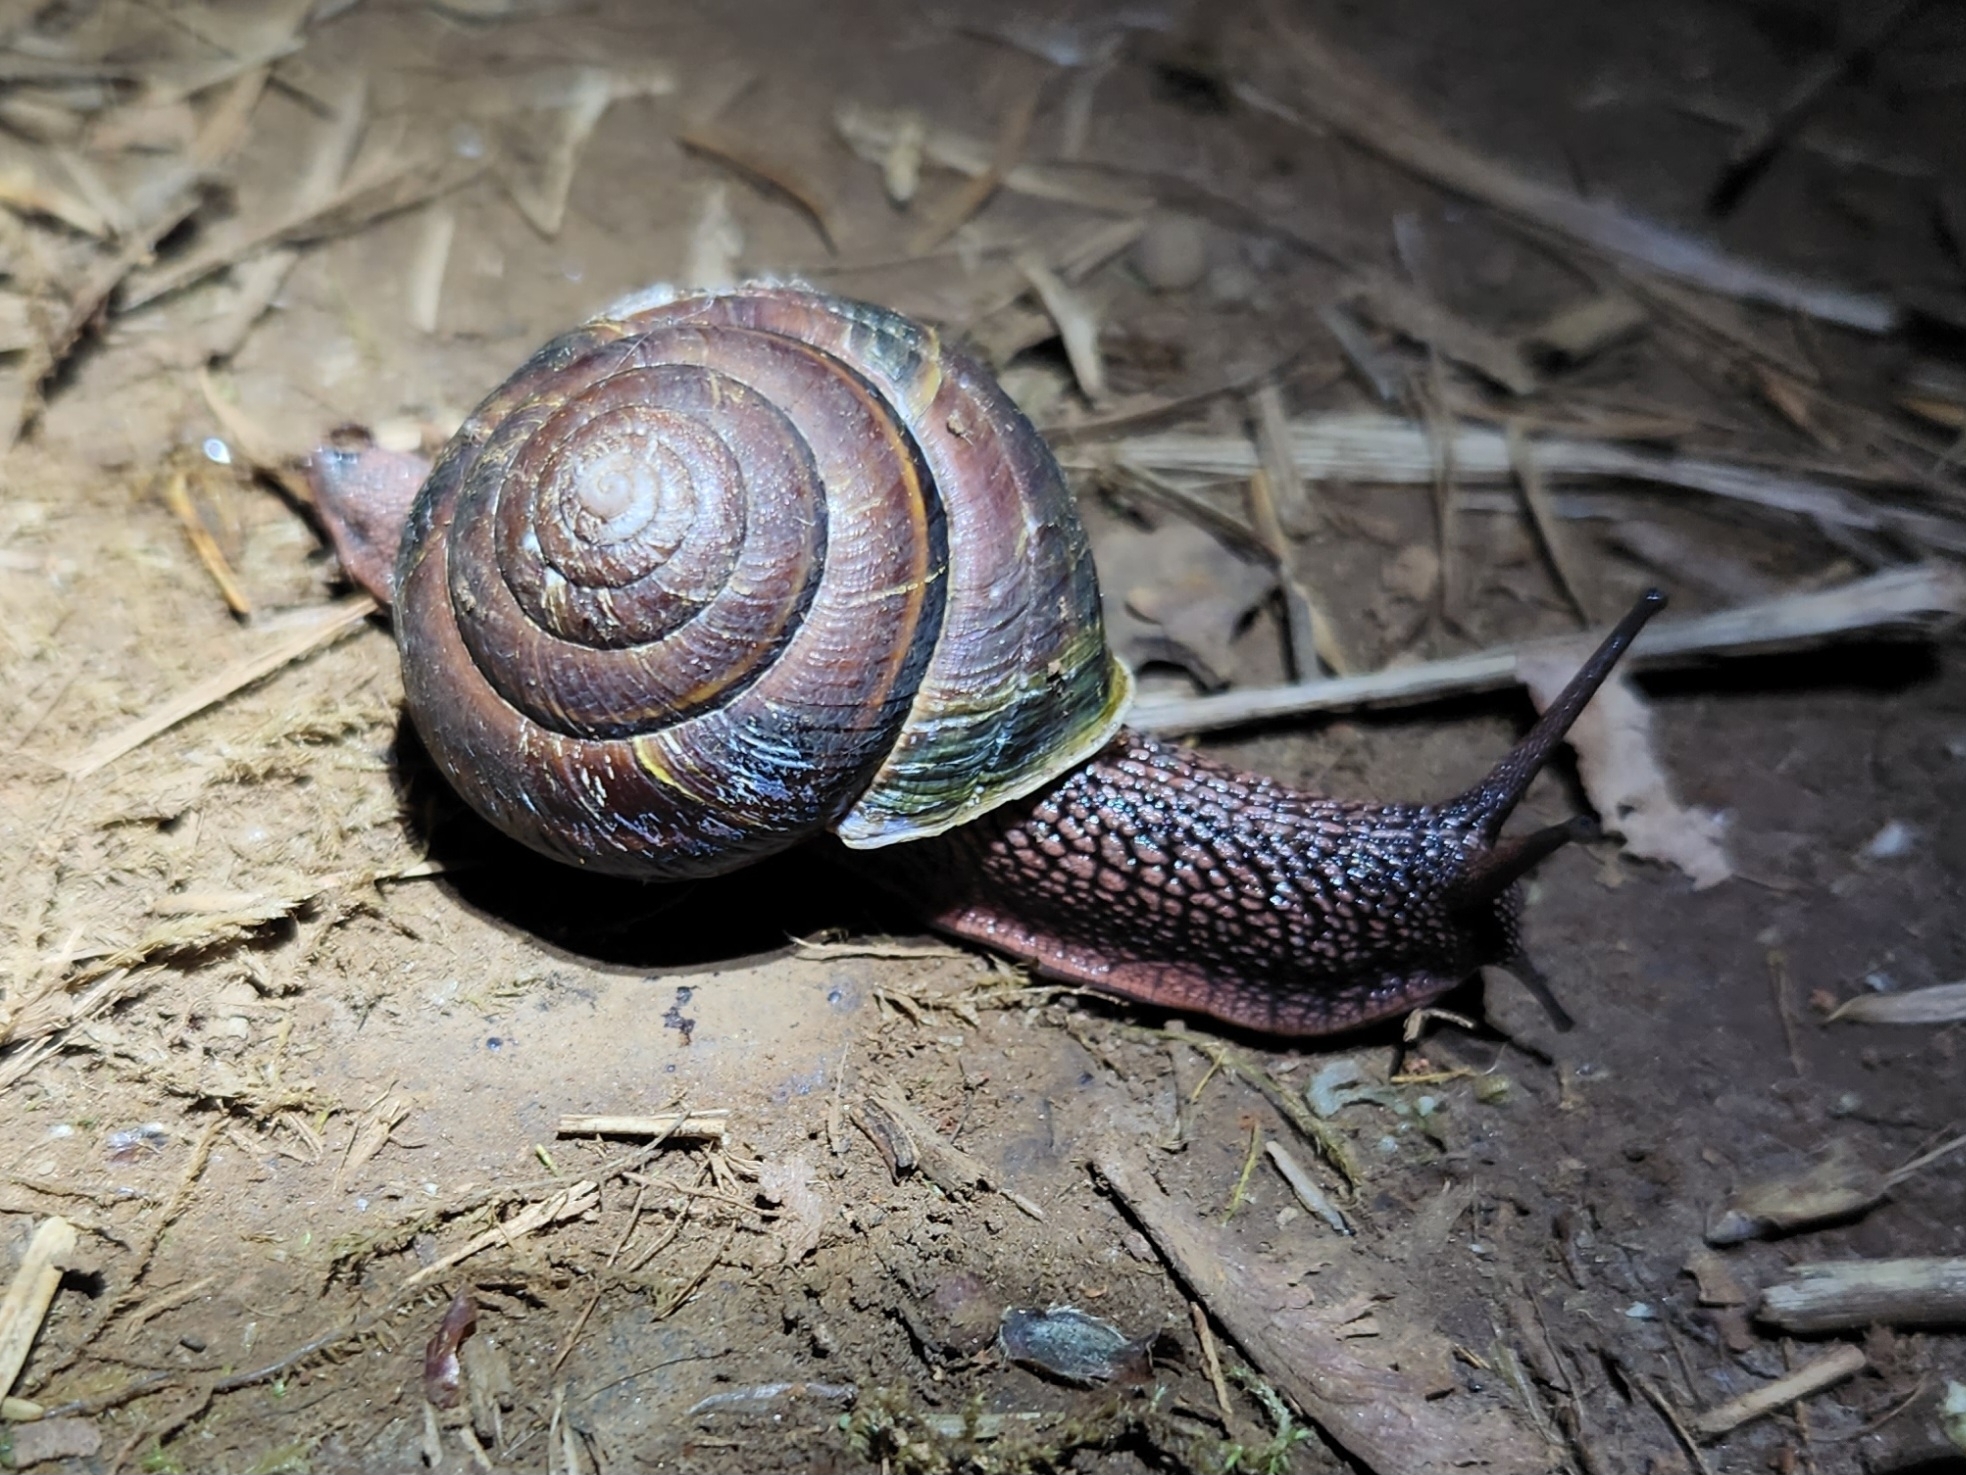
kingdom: Animalia
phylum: Mollusca
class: Gastropoda
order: Stylommatophora
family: Xanthonychidae
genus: Monadenia
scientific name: Monadenia fidelis
